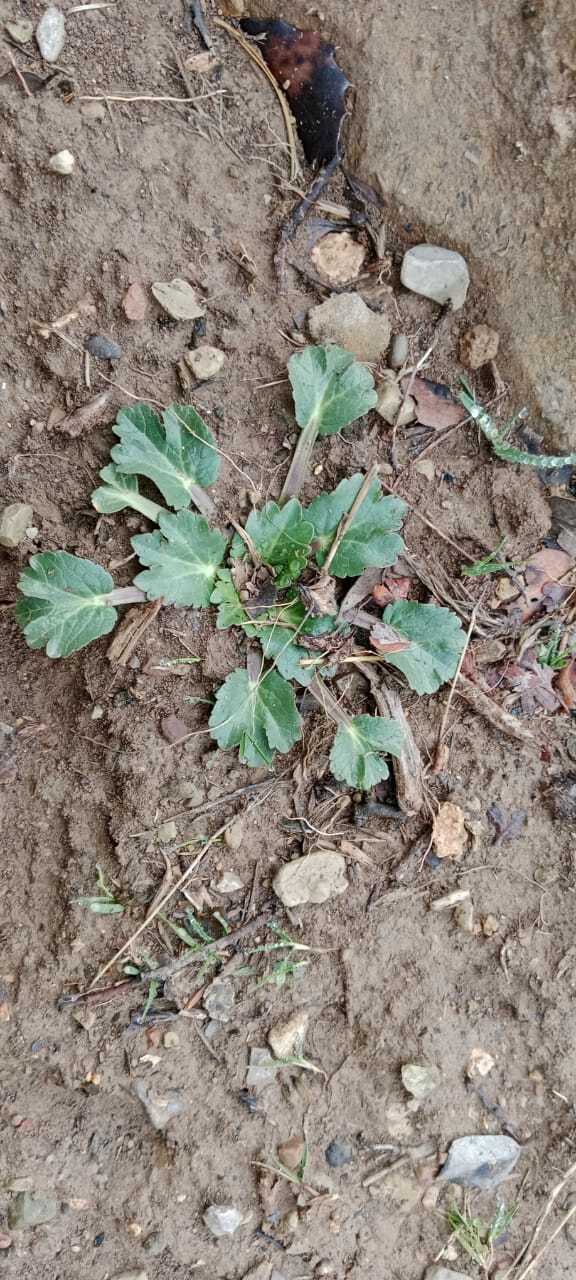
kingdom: Plantae
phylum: Tracheophyta
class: Magnoliopsida
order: Apiales
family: Apiaceae
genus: Eryngium
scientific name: Eryngium triquetrum
